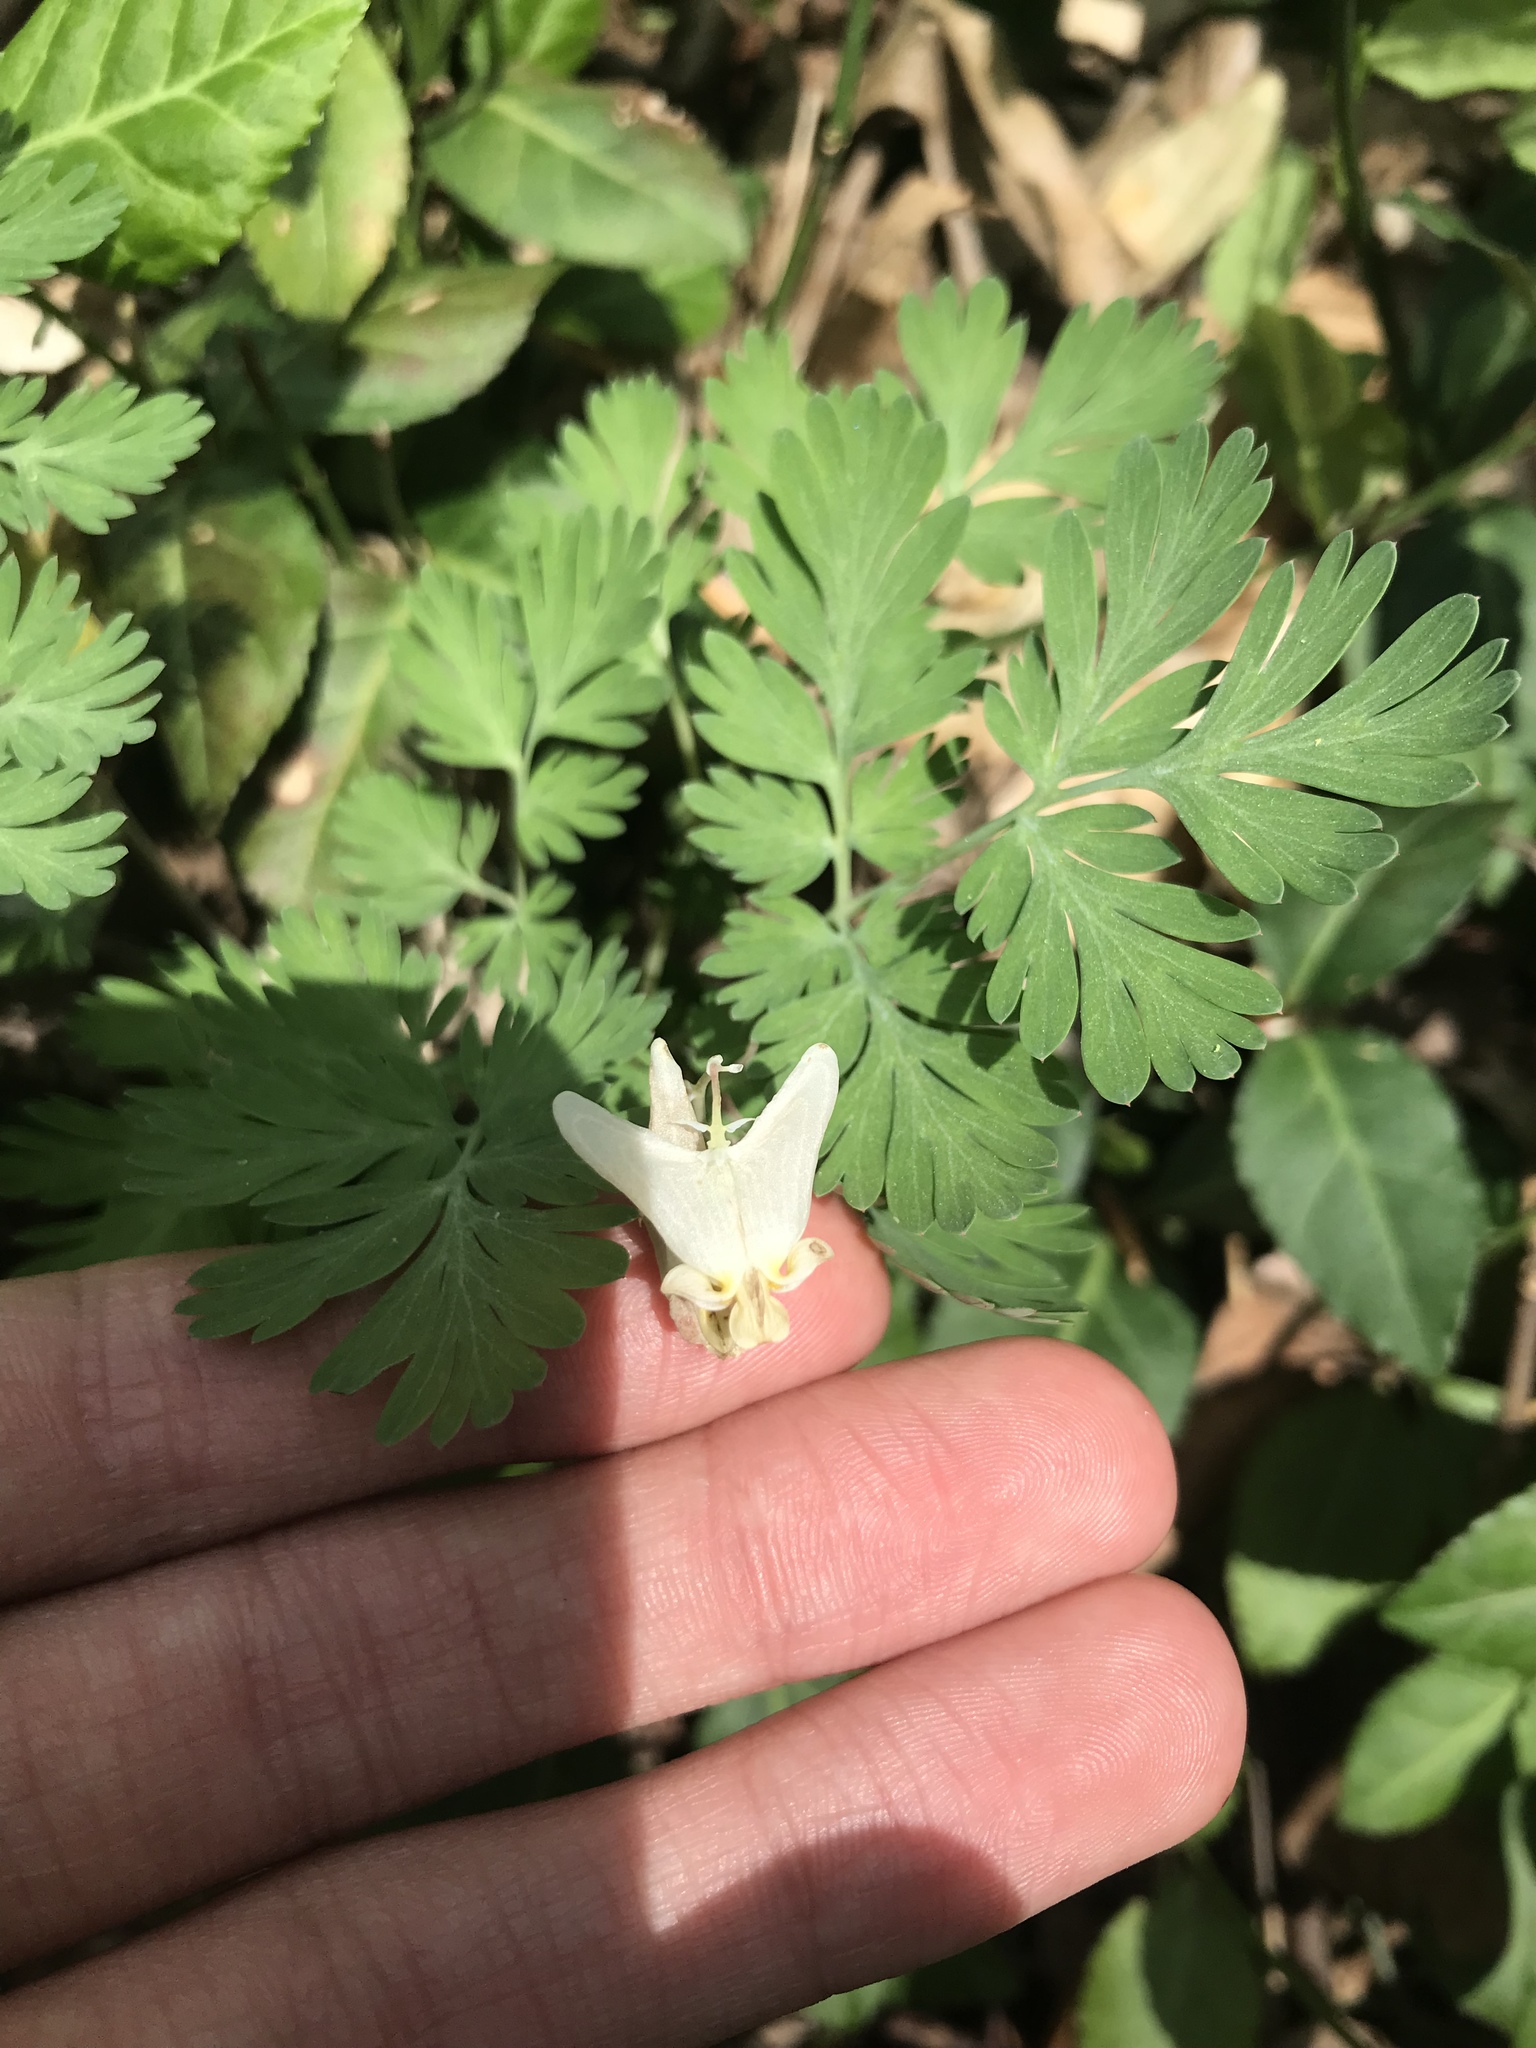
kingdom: Plantae
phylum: Tracheophyta
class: Magnoliopsida
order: Ranunculales
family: Papaveraceae
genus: Dicentra
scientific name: Dicentra cucullaria
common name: Dutchman's breeches
